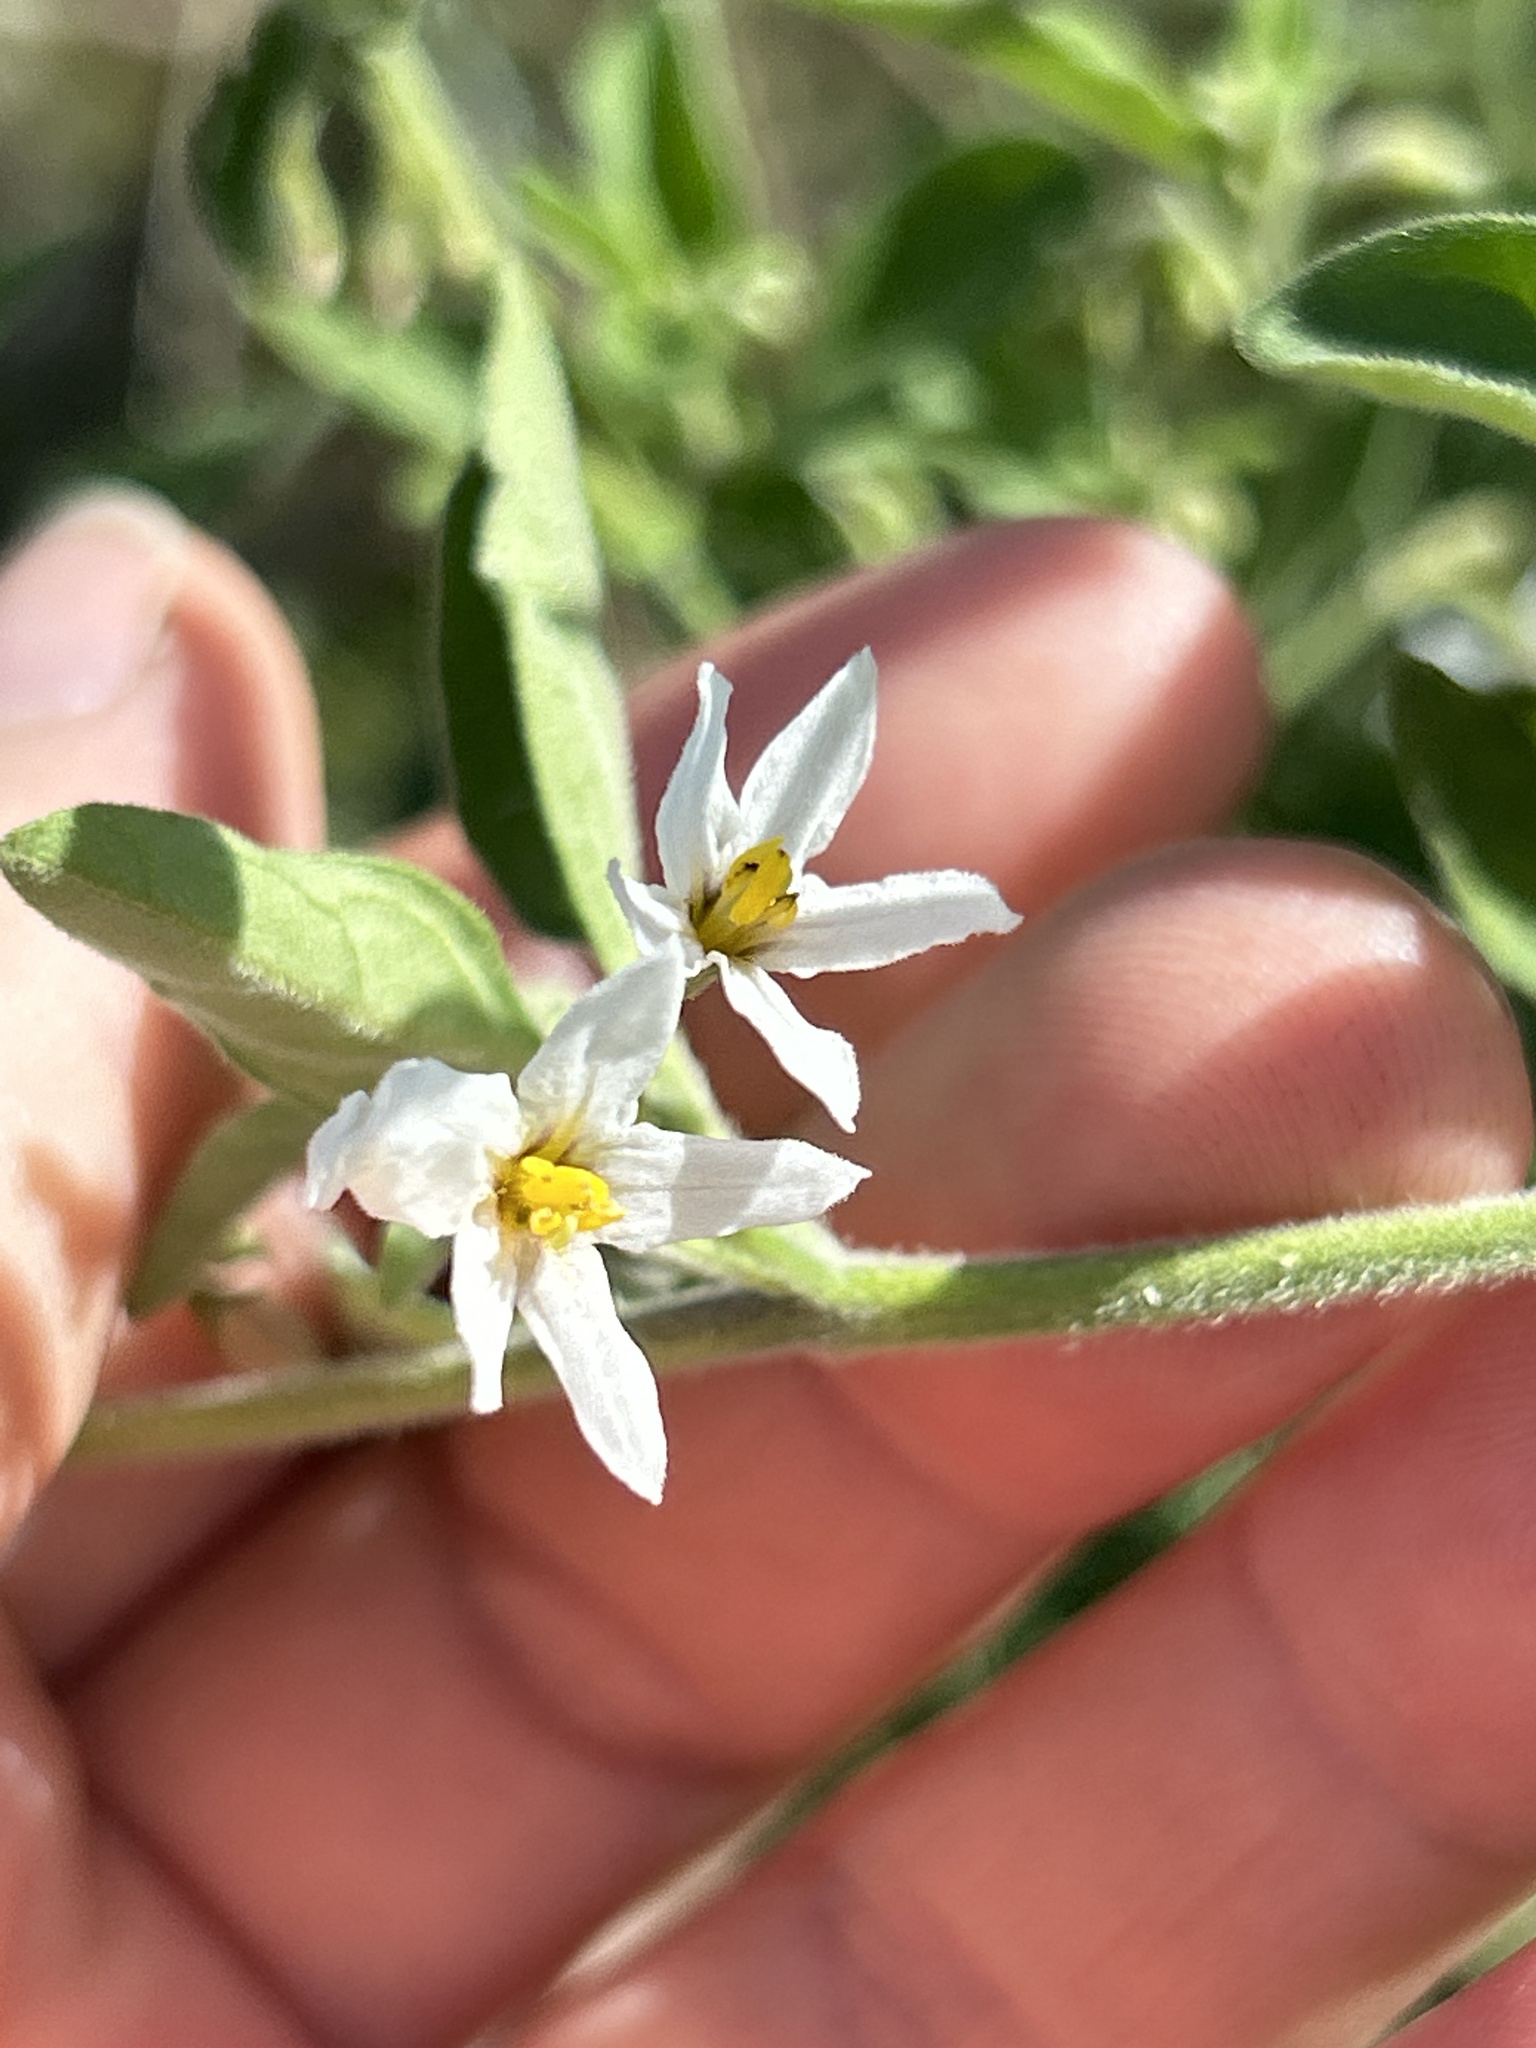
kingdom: Plantae
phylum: Tracheophyta
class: Magnoliopsida
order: Solanales
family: Solanaceae
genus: Solanum
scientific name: Solanum chenopodioides
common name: Tall nightshade
